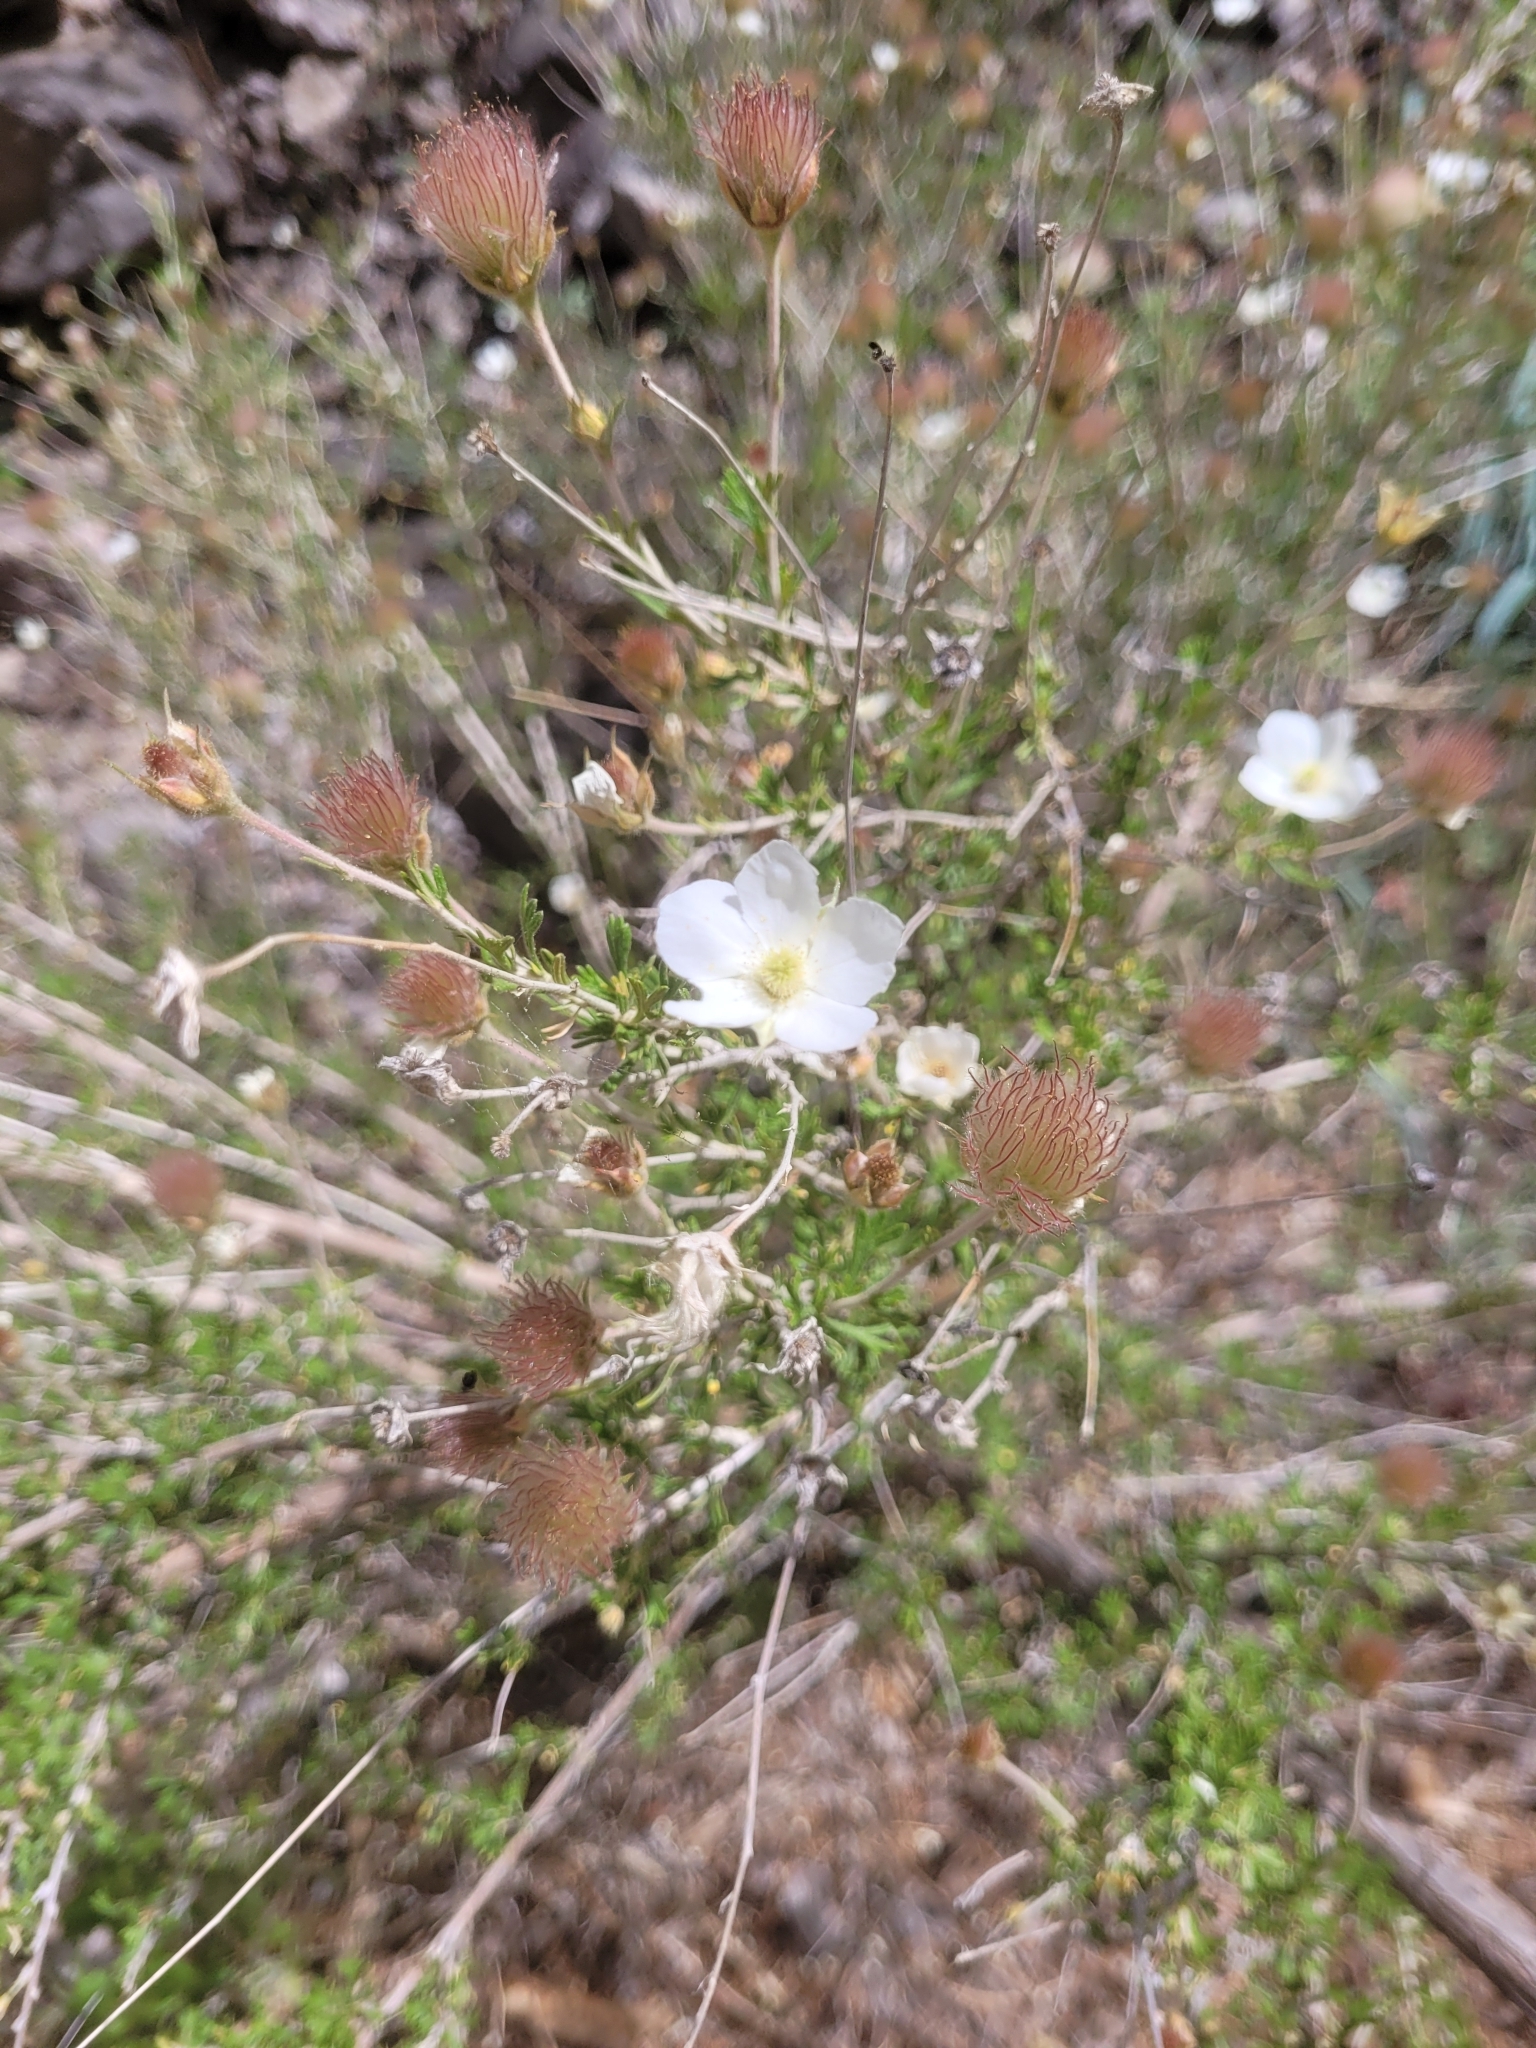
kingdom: Plantae
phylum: Tracheophyta
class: Magnoliopsida
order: Rosales
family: Rosaceae
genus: Fallugia
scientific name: Fallugia paradoxa
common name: Apache-plume
